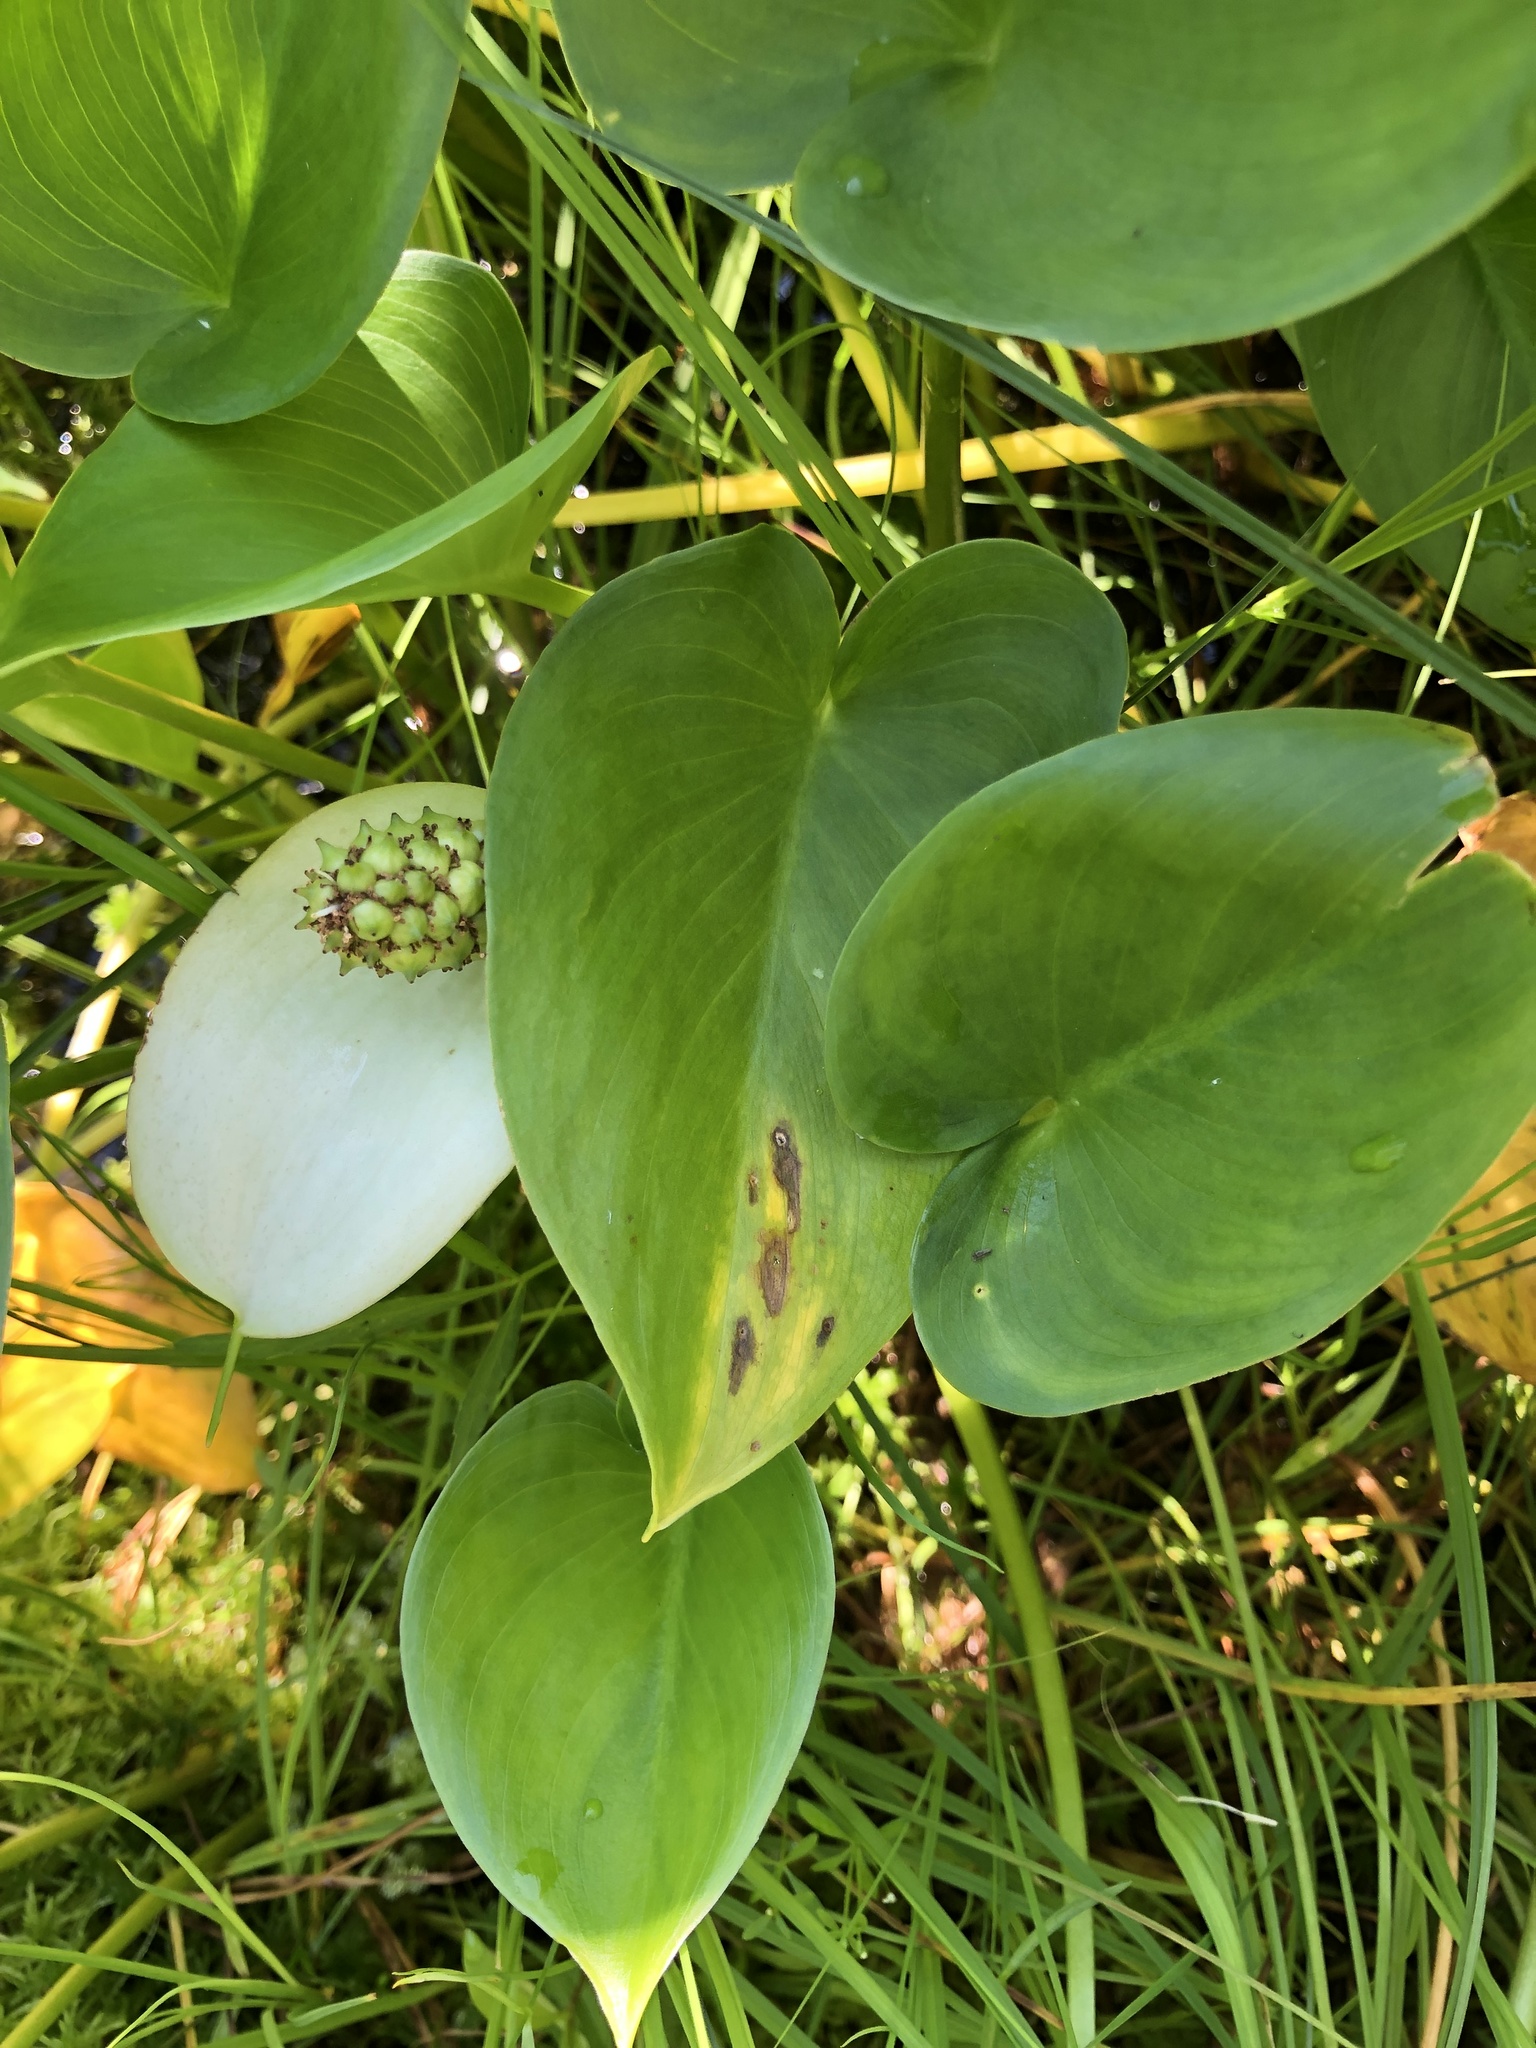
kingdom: Plantae
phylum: Tracheophyta
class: Liliopsida
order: Alismatales
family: Araceae
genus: Calla
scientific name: Calla palustris
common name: Bog arum
